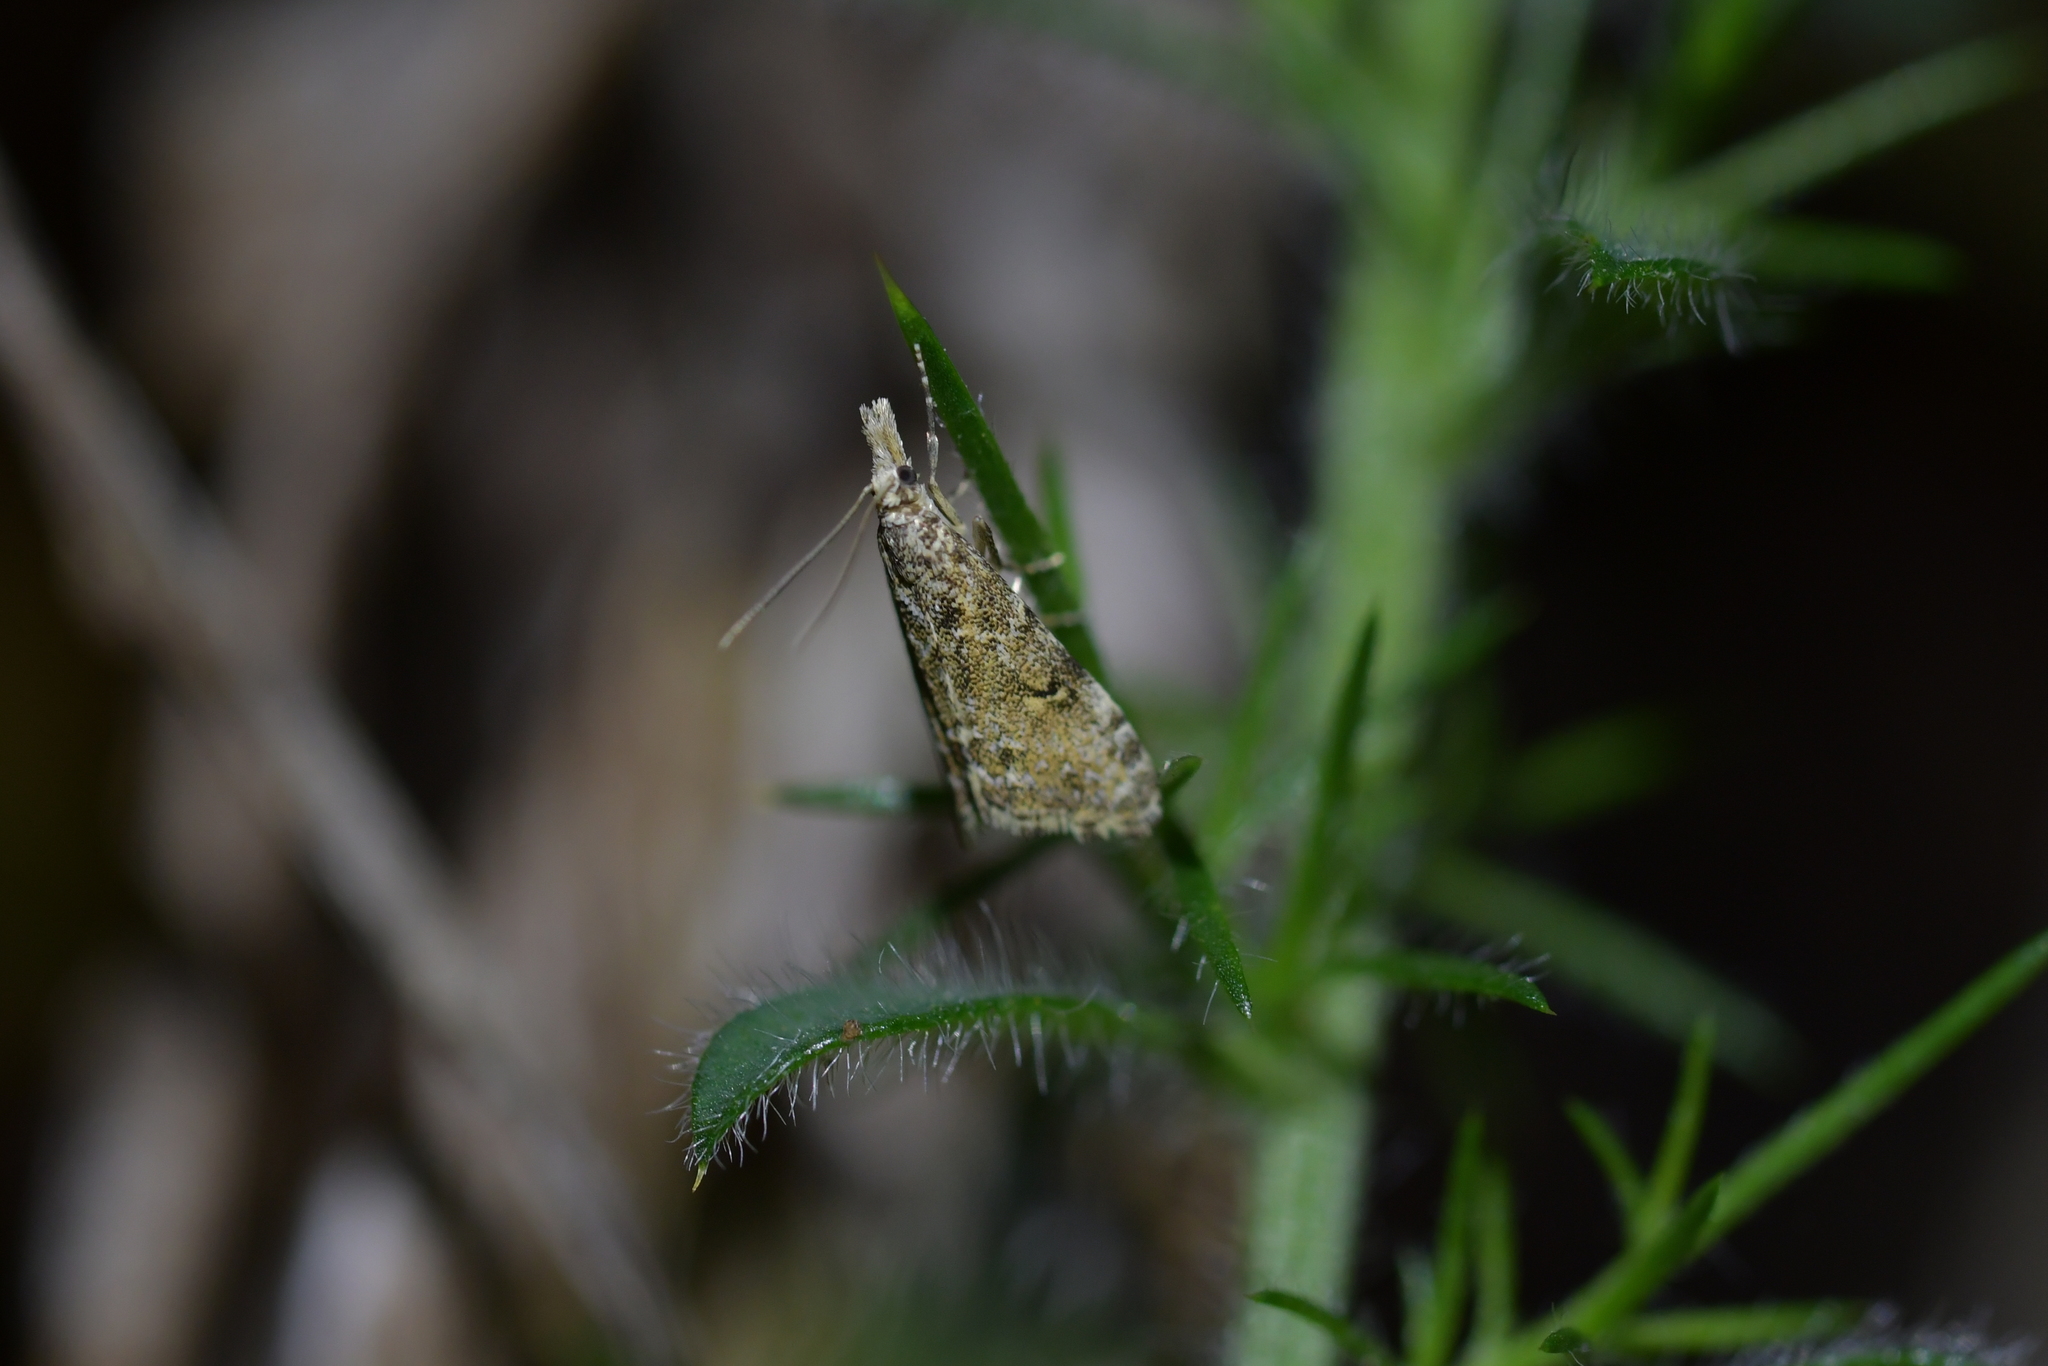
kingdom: Animalia
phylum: Arthropoda
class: Insecta
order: Lepidoptera
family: Crambidae
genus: Glaucocharis
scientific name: Glaucocharis elaina
